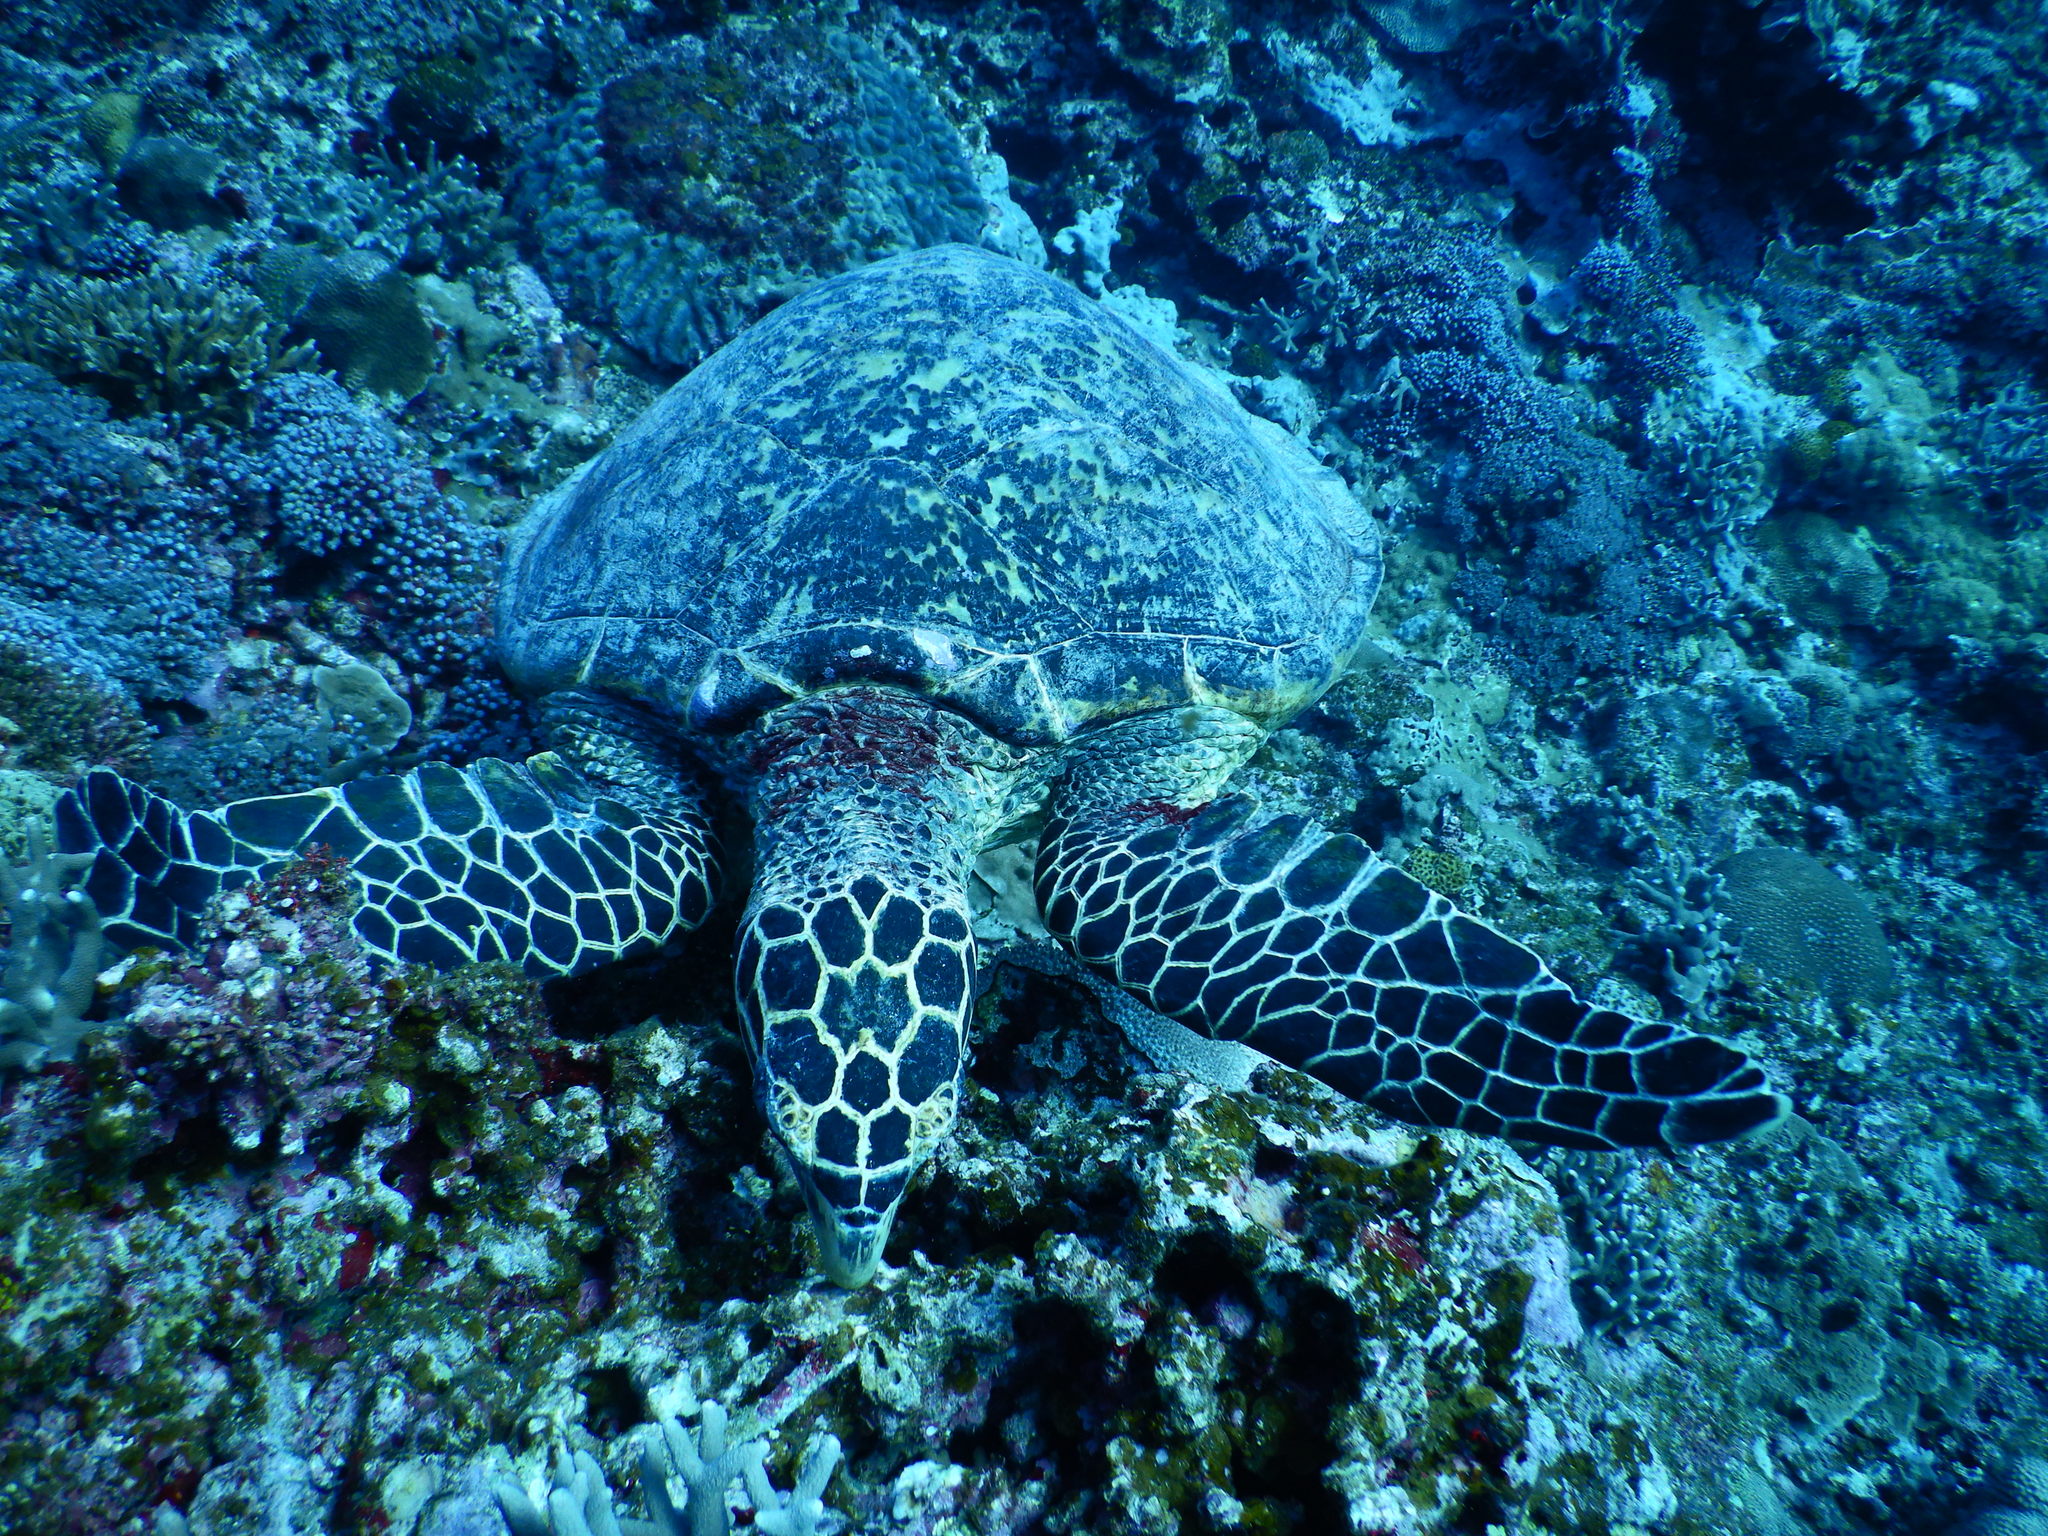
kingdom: Animalia
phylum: Chordata
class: Testudines
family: Cheloniidae
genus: Eretmochelys
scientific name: Eretmochelys imbricata
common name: Hawksbill turtle
